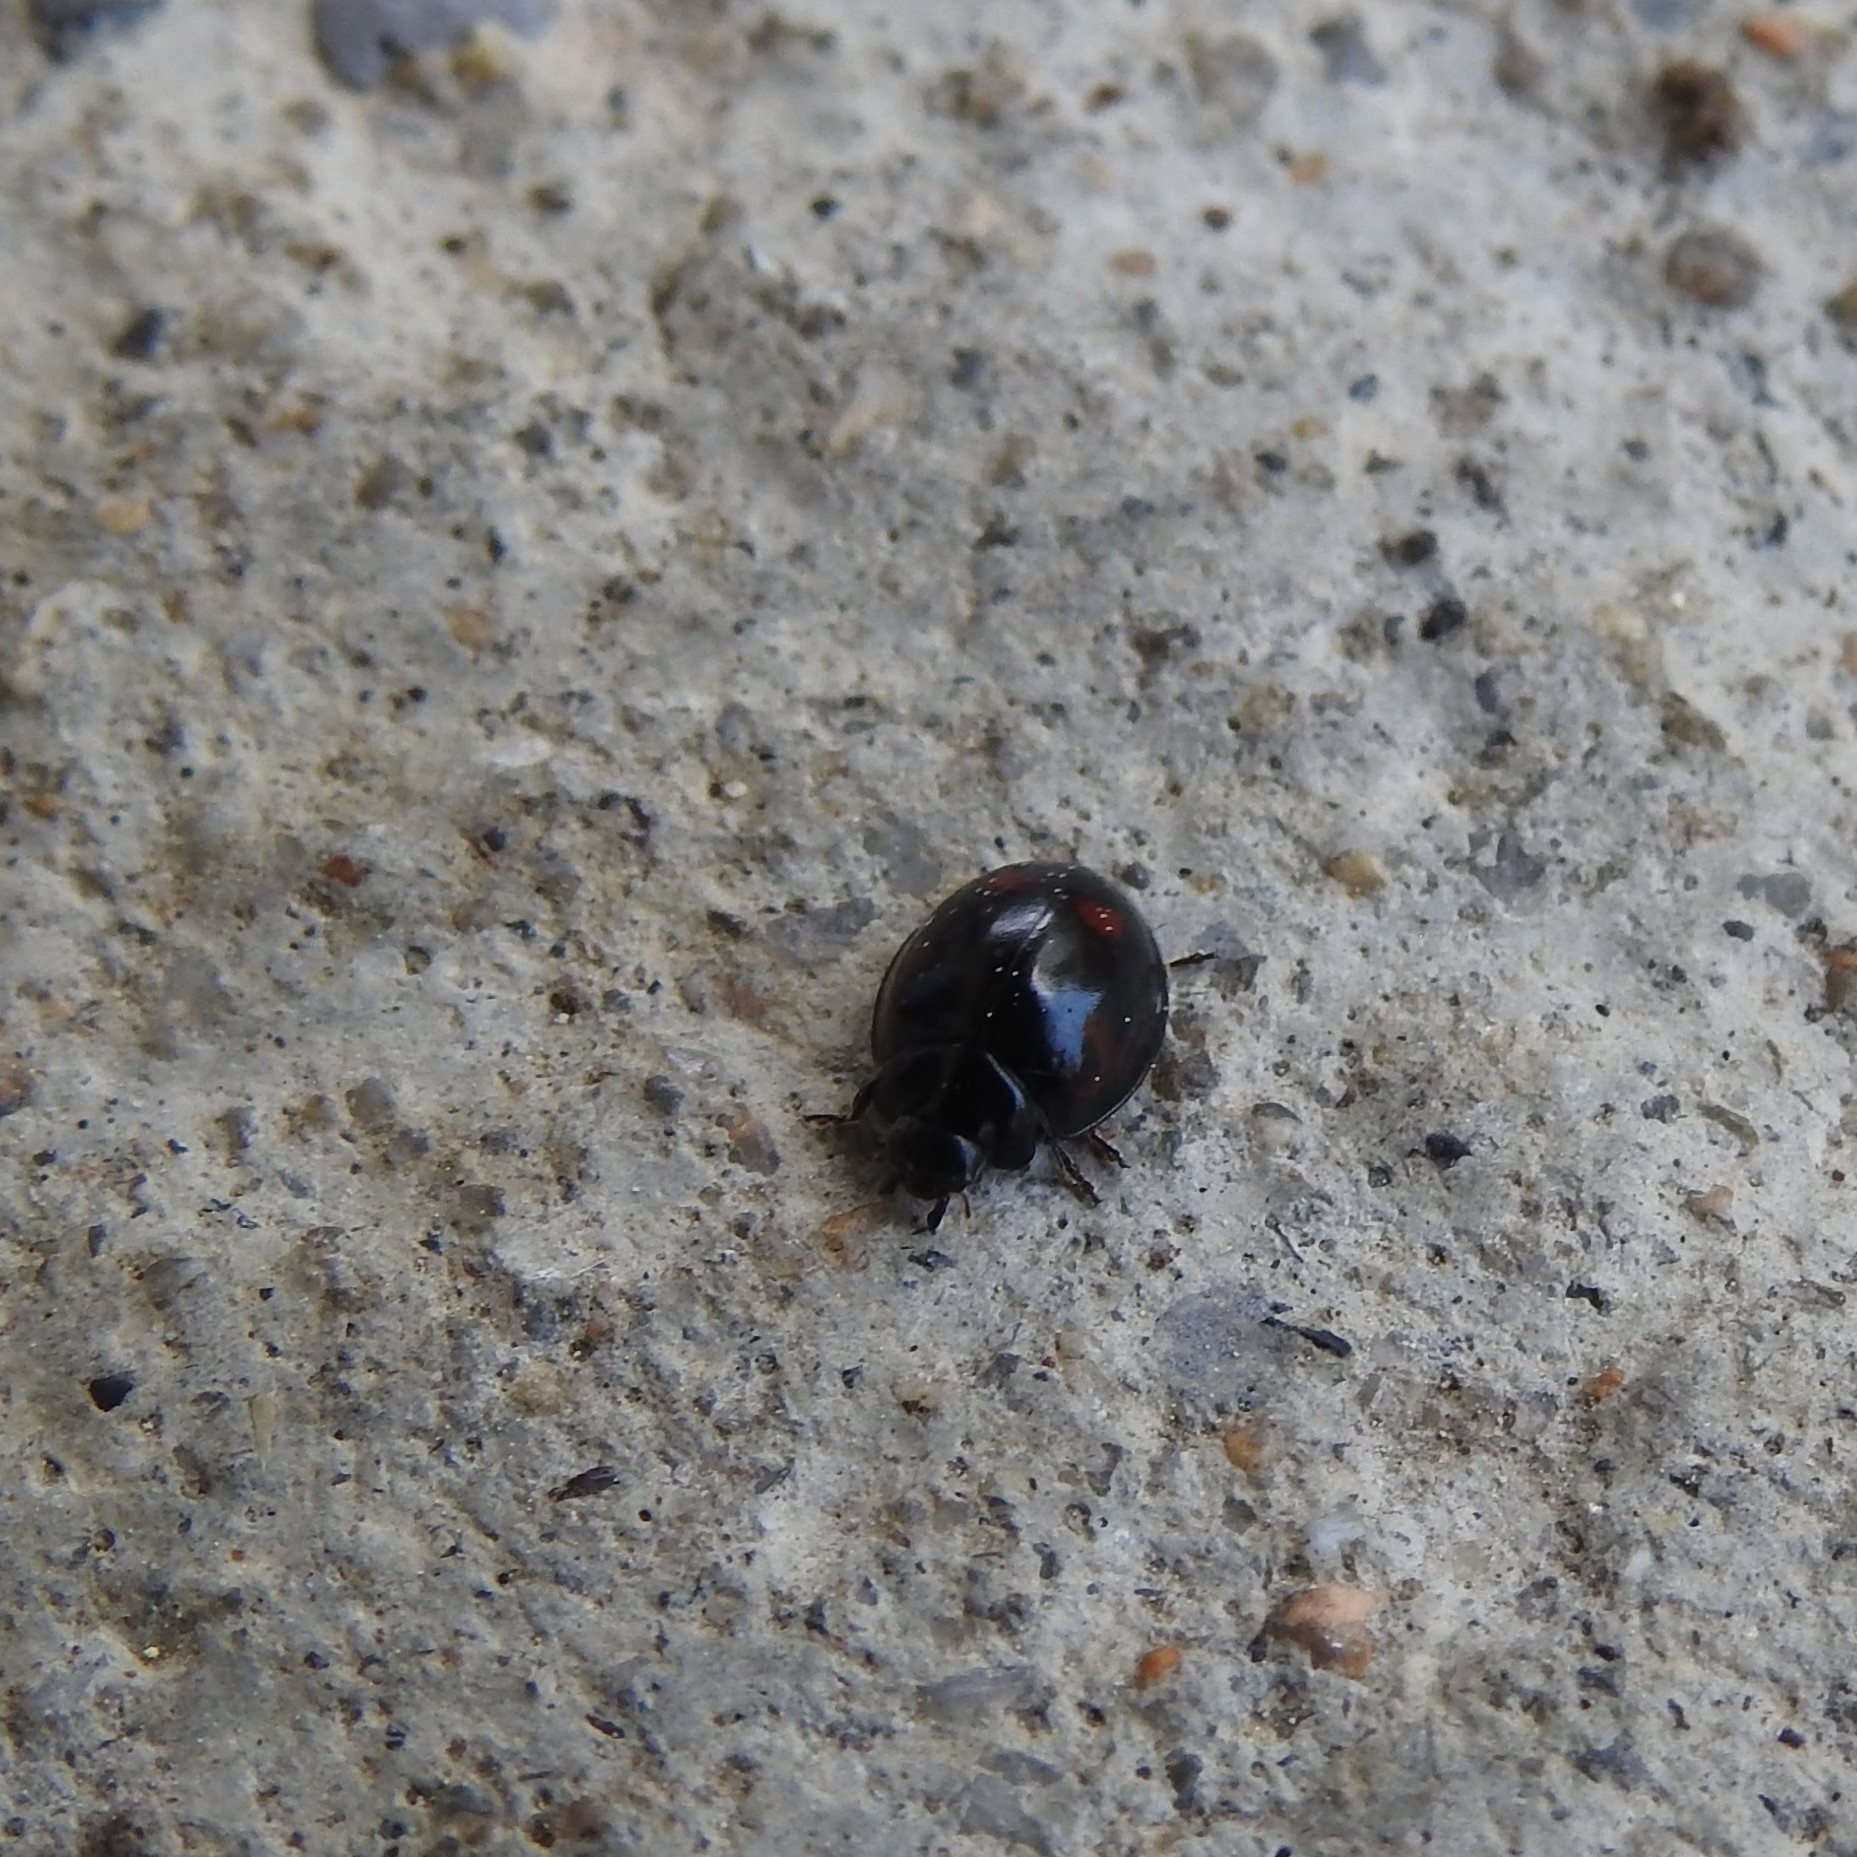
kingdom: Animalia
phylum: Arthropoda
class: Insecta
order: Coleoptera
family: Coccinellidae
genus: Brumus
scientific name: Brumus quadripustulatus
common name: Ladybird beetle
